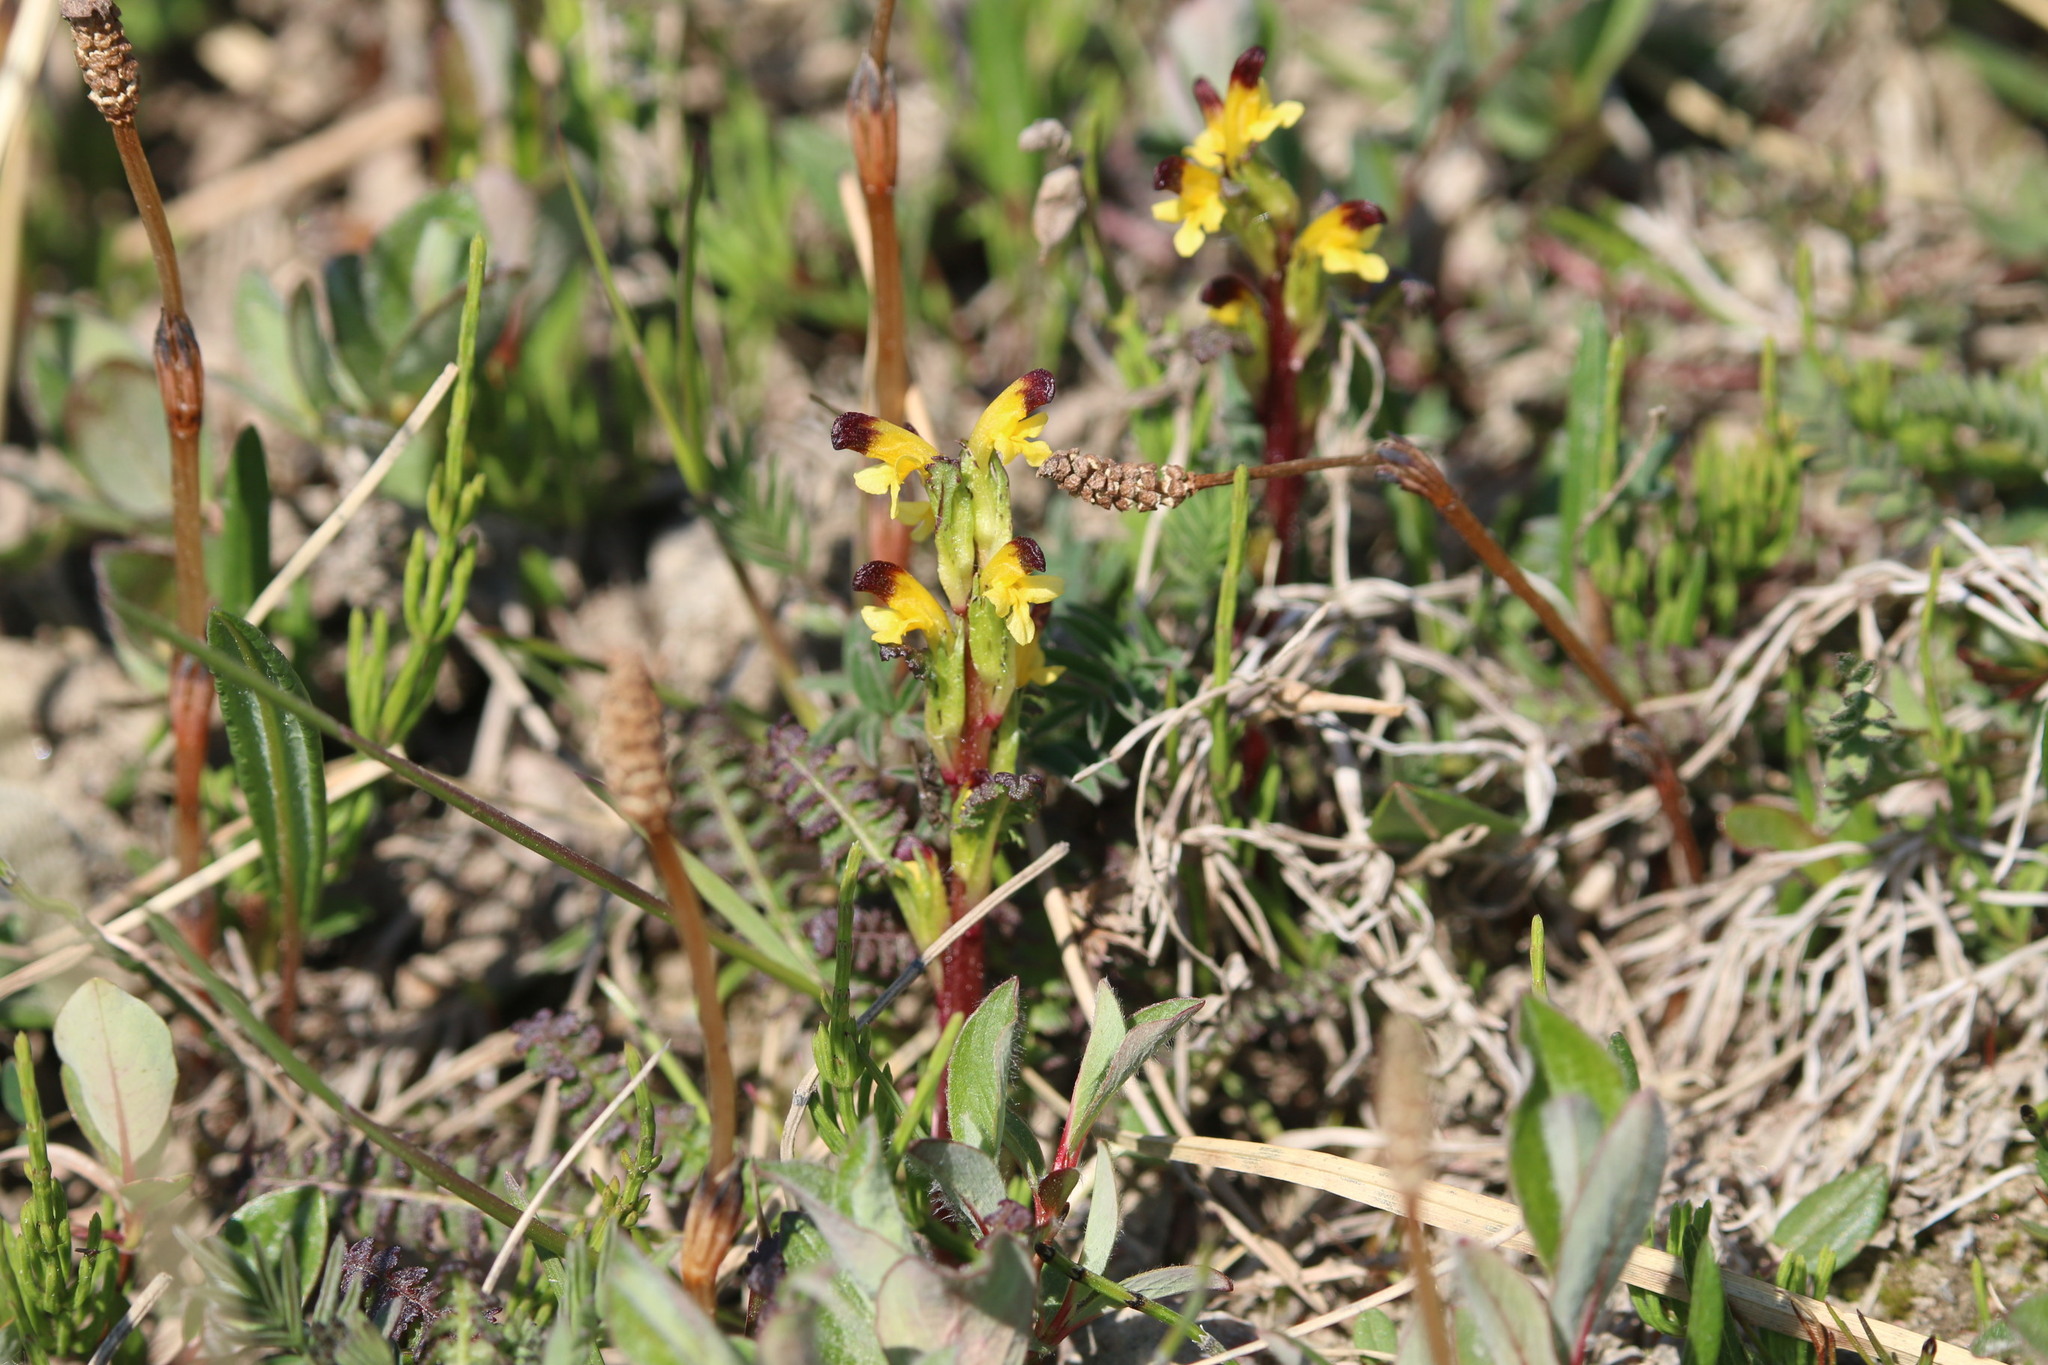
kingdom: Plantae
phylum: Tracheophyta
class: Magnoliopsida
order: Lamiales
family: Orobanchaceae
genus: Pedicularis
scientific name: Pedicularis flammea
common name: Flame-coloured lousewort
